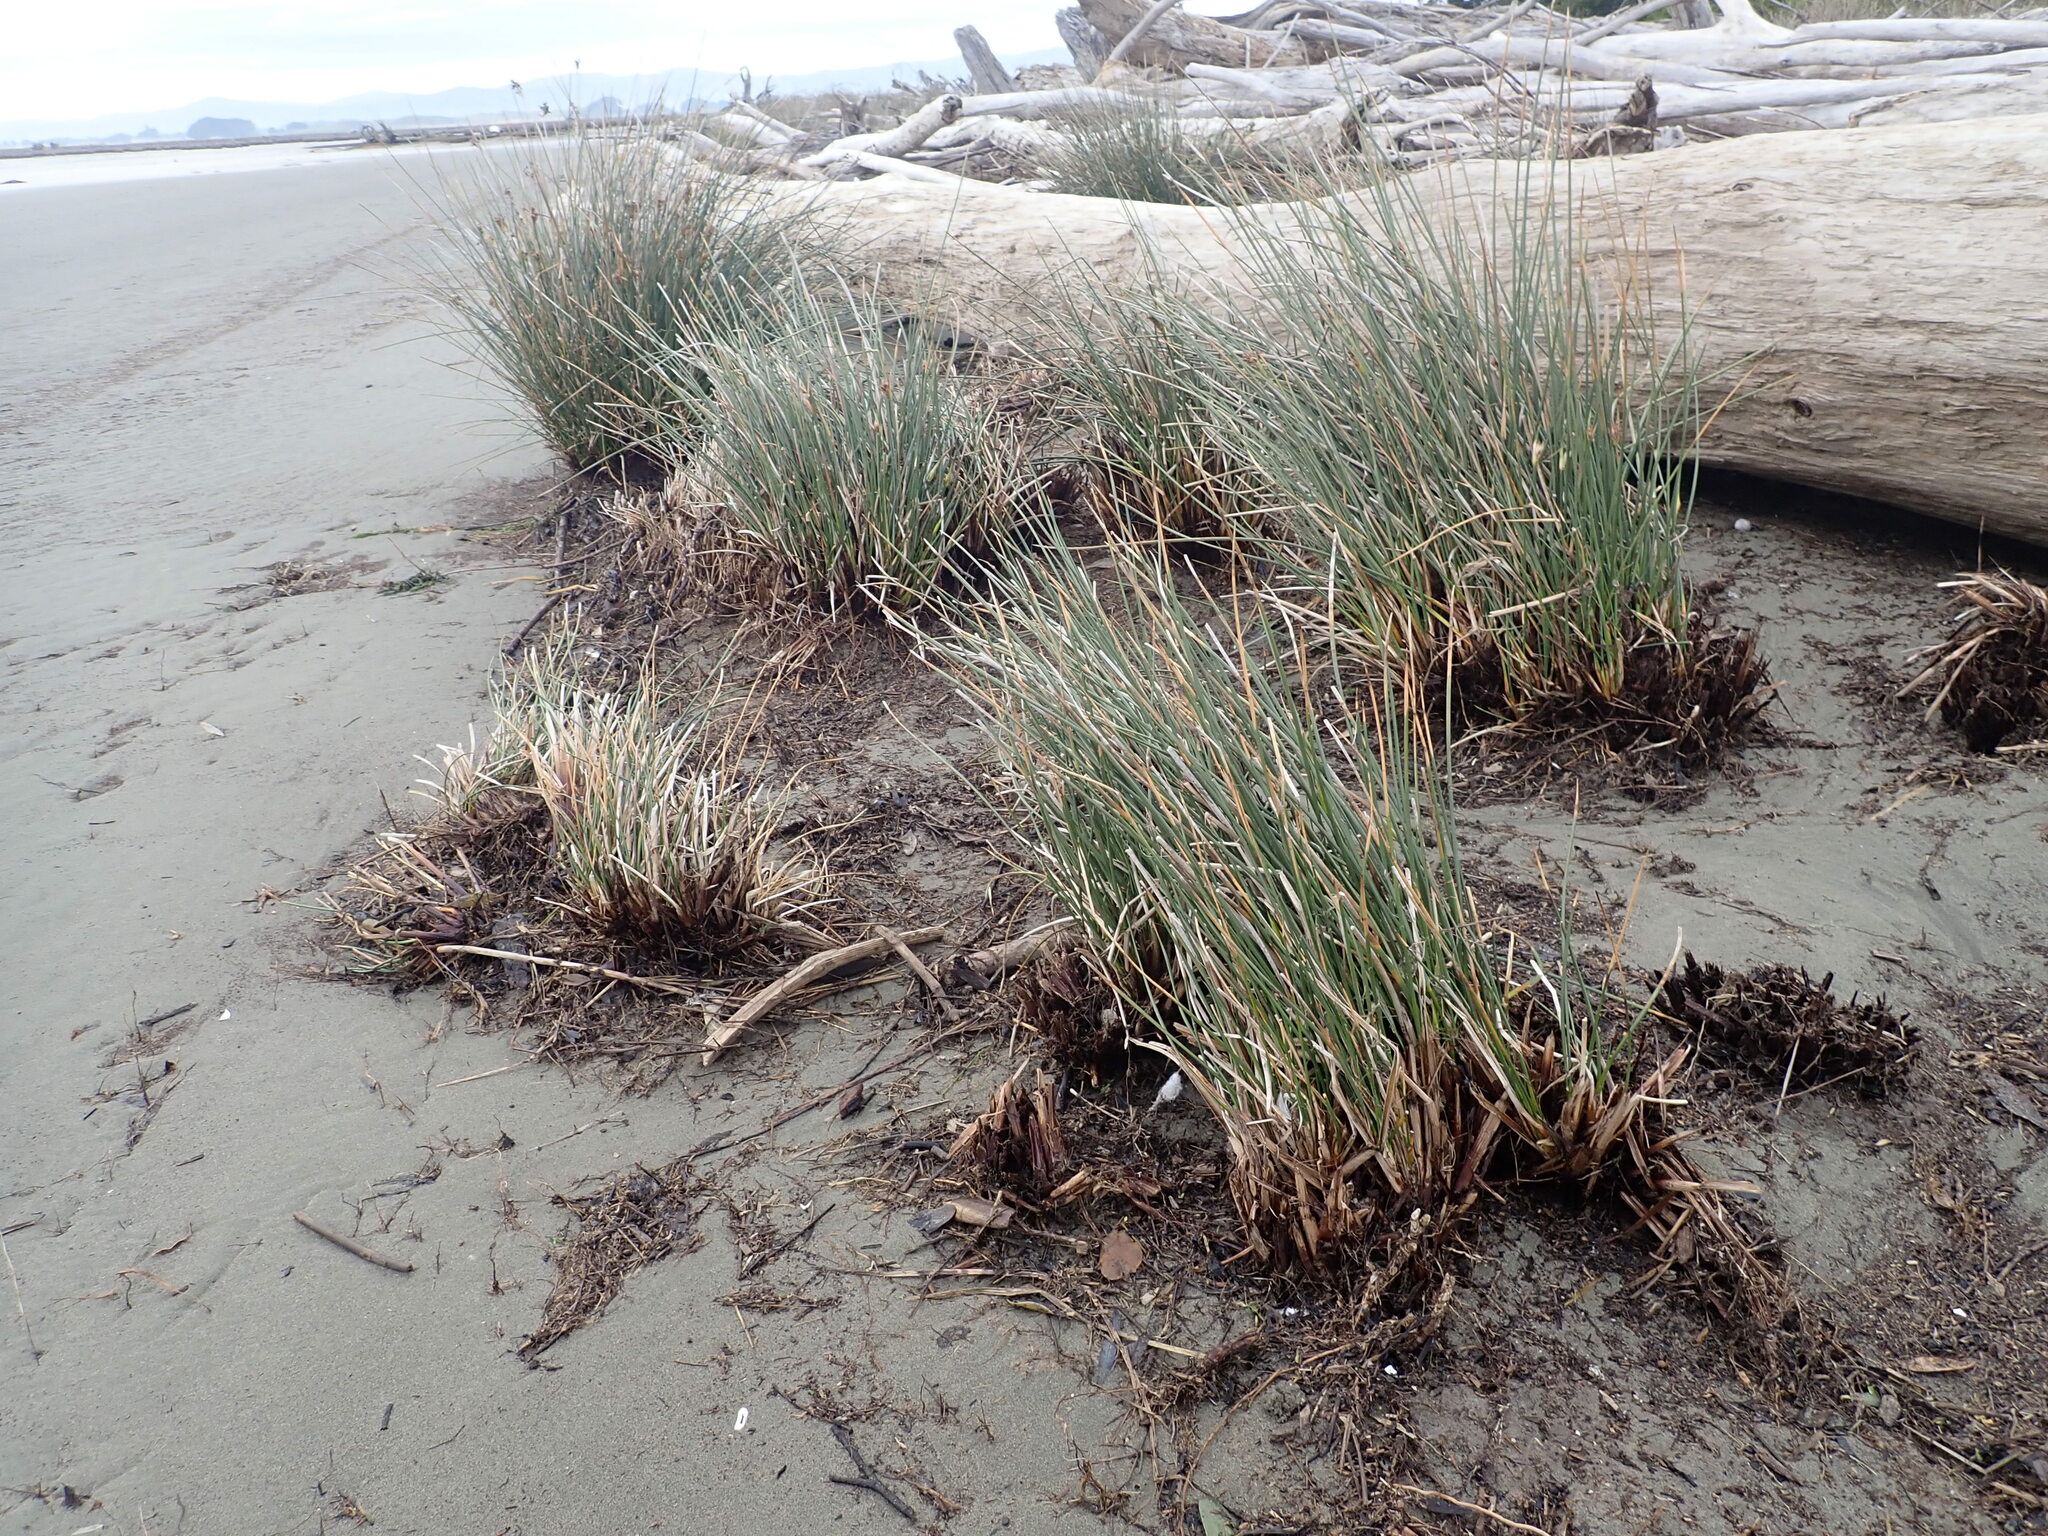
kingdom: Plantae
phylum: Tracheophyta
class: Liliopsida
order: Poales
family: Juncaceae
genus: Juncus
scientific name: Juncus acutus
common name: Sharp rush
